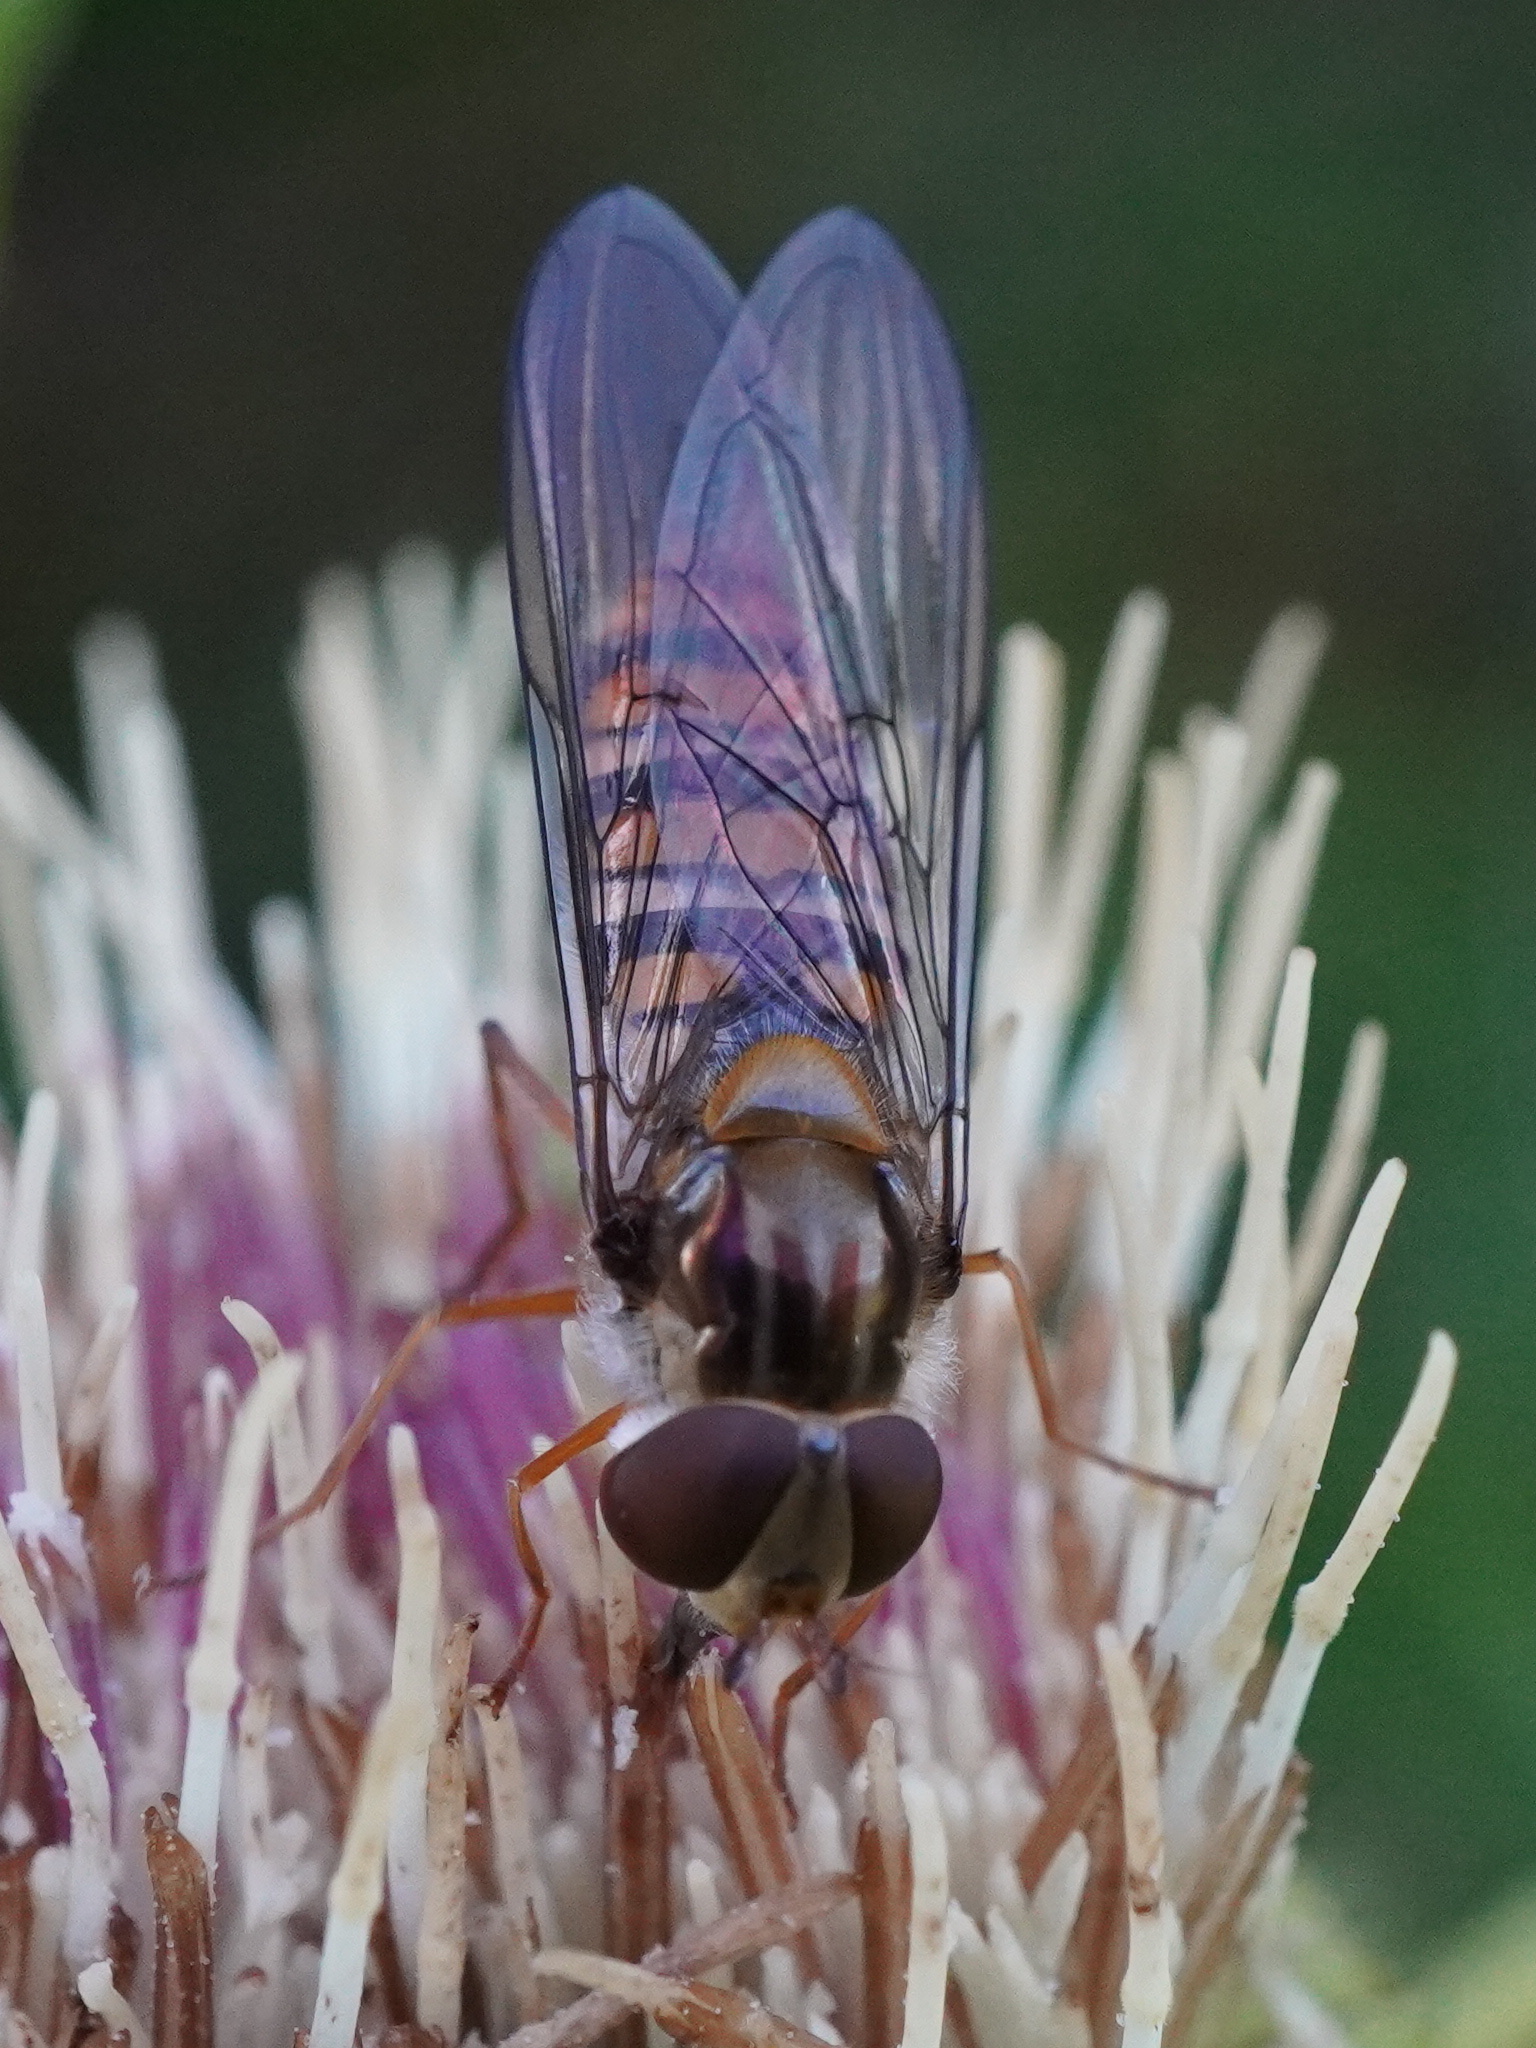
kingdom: Animalia
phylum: Arthropoda
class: Insecta
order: Diptera
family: Syrphidae
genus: Episyrphus
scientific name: Episyrphus balteatus
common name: Marmalade hoverfly
